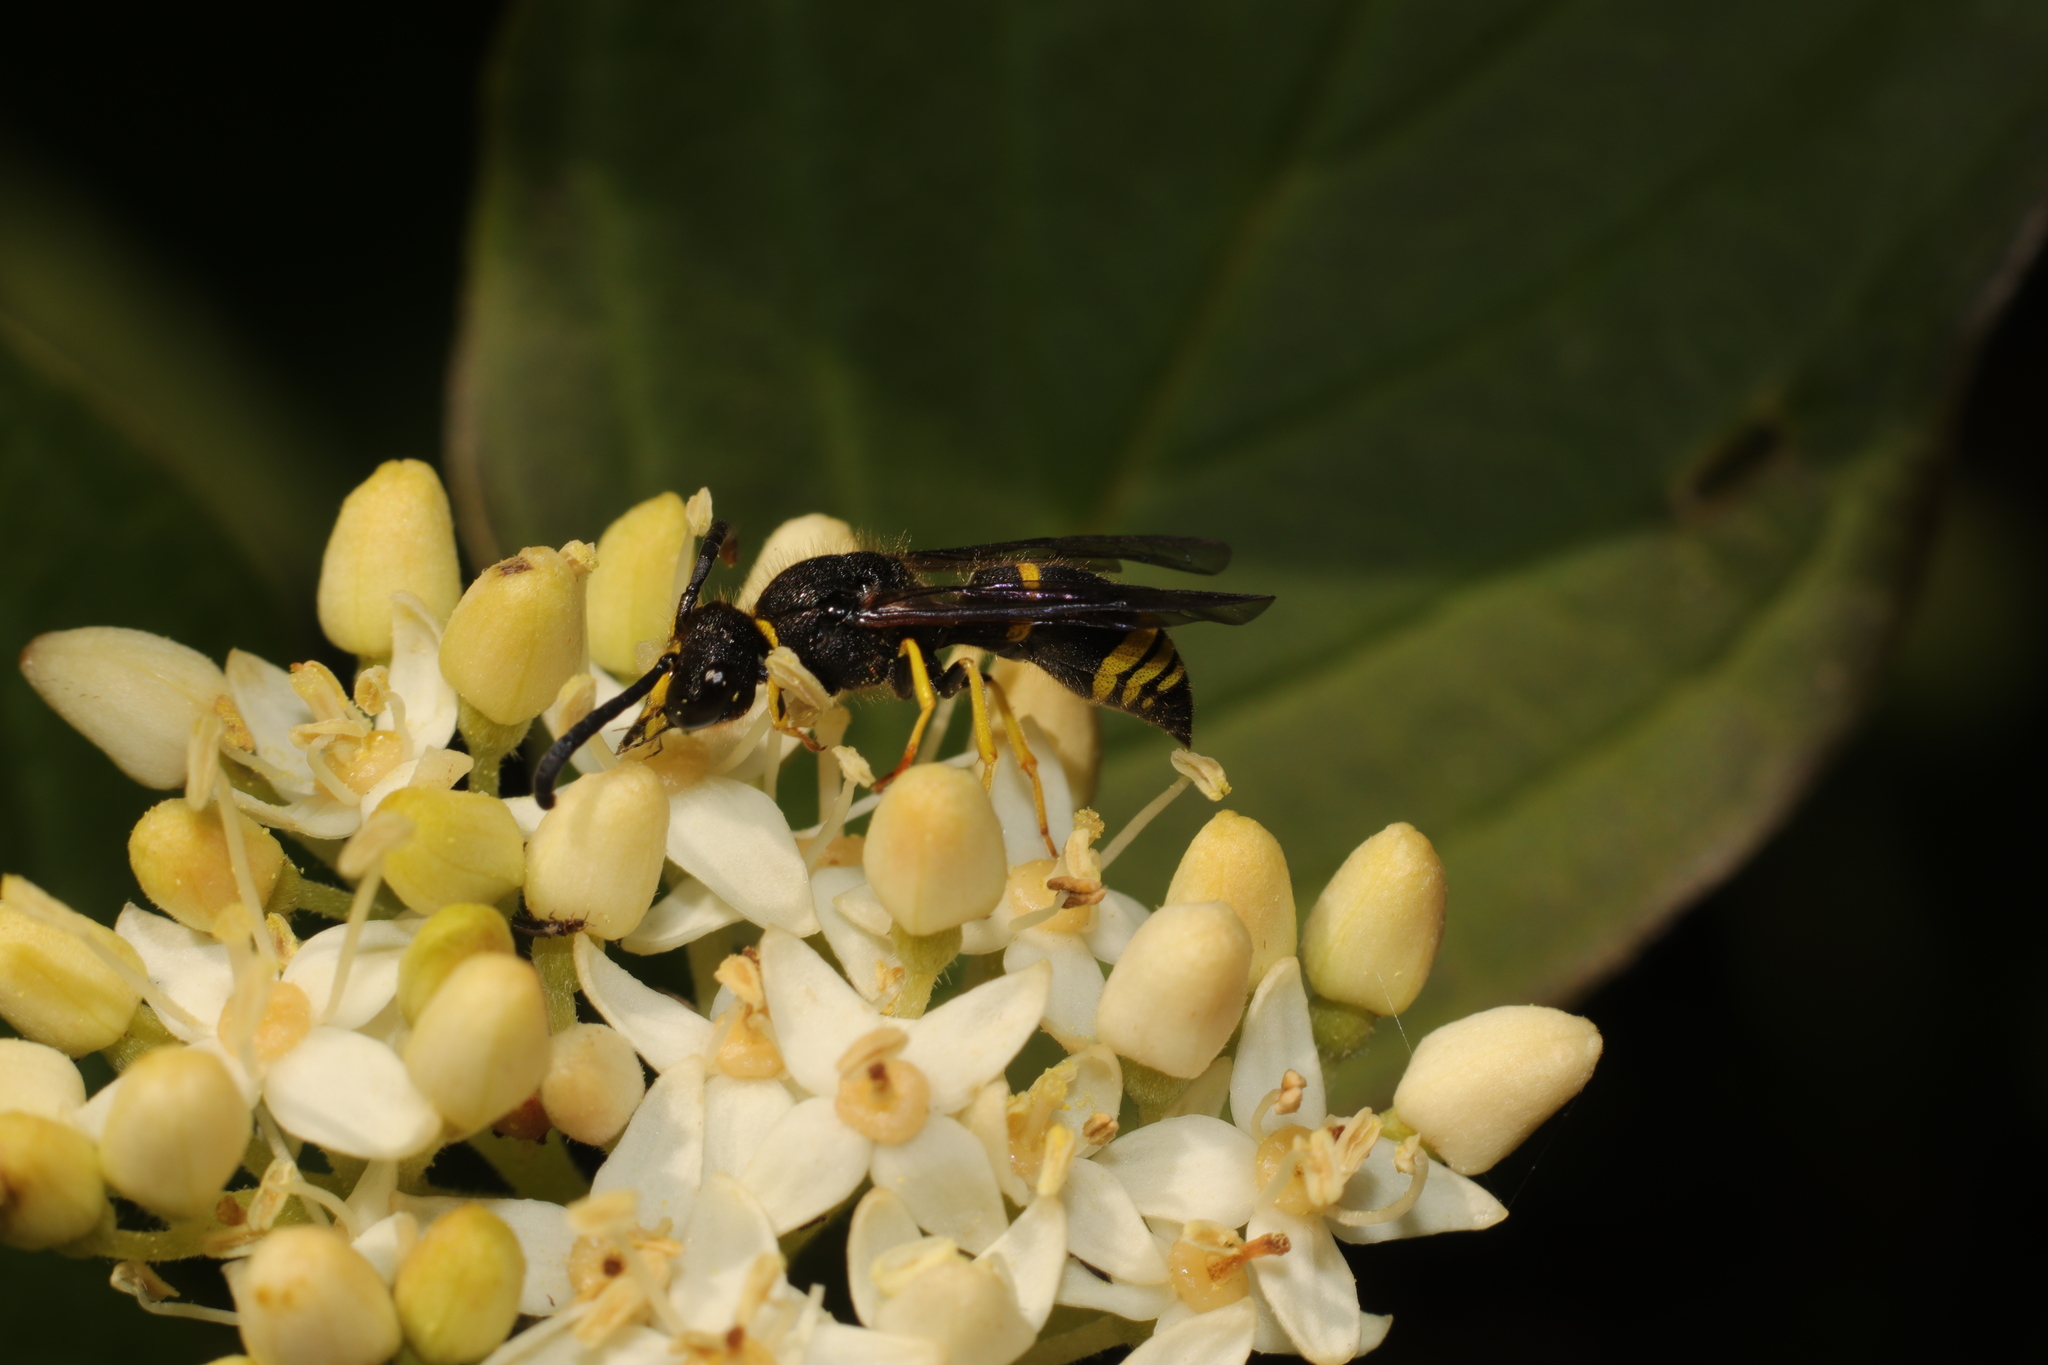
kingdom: Animalia
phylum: Arthropoda
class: Insecta
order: Hymenoptera
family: Vespidae
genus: Ancistrocerus
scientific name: Ancistrocerus gazella
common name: European tube wasp
